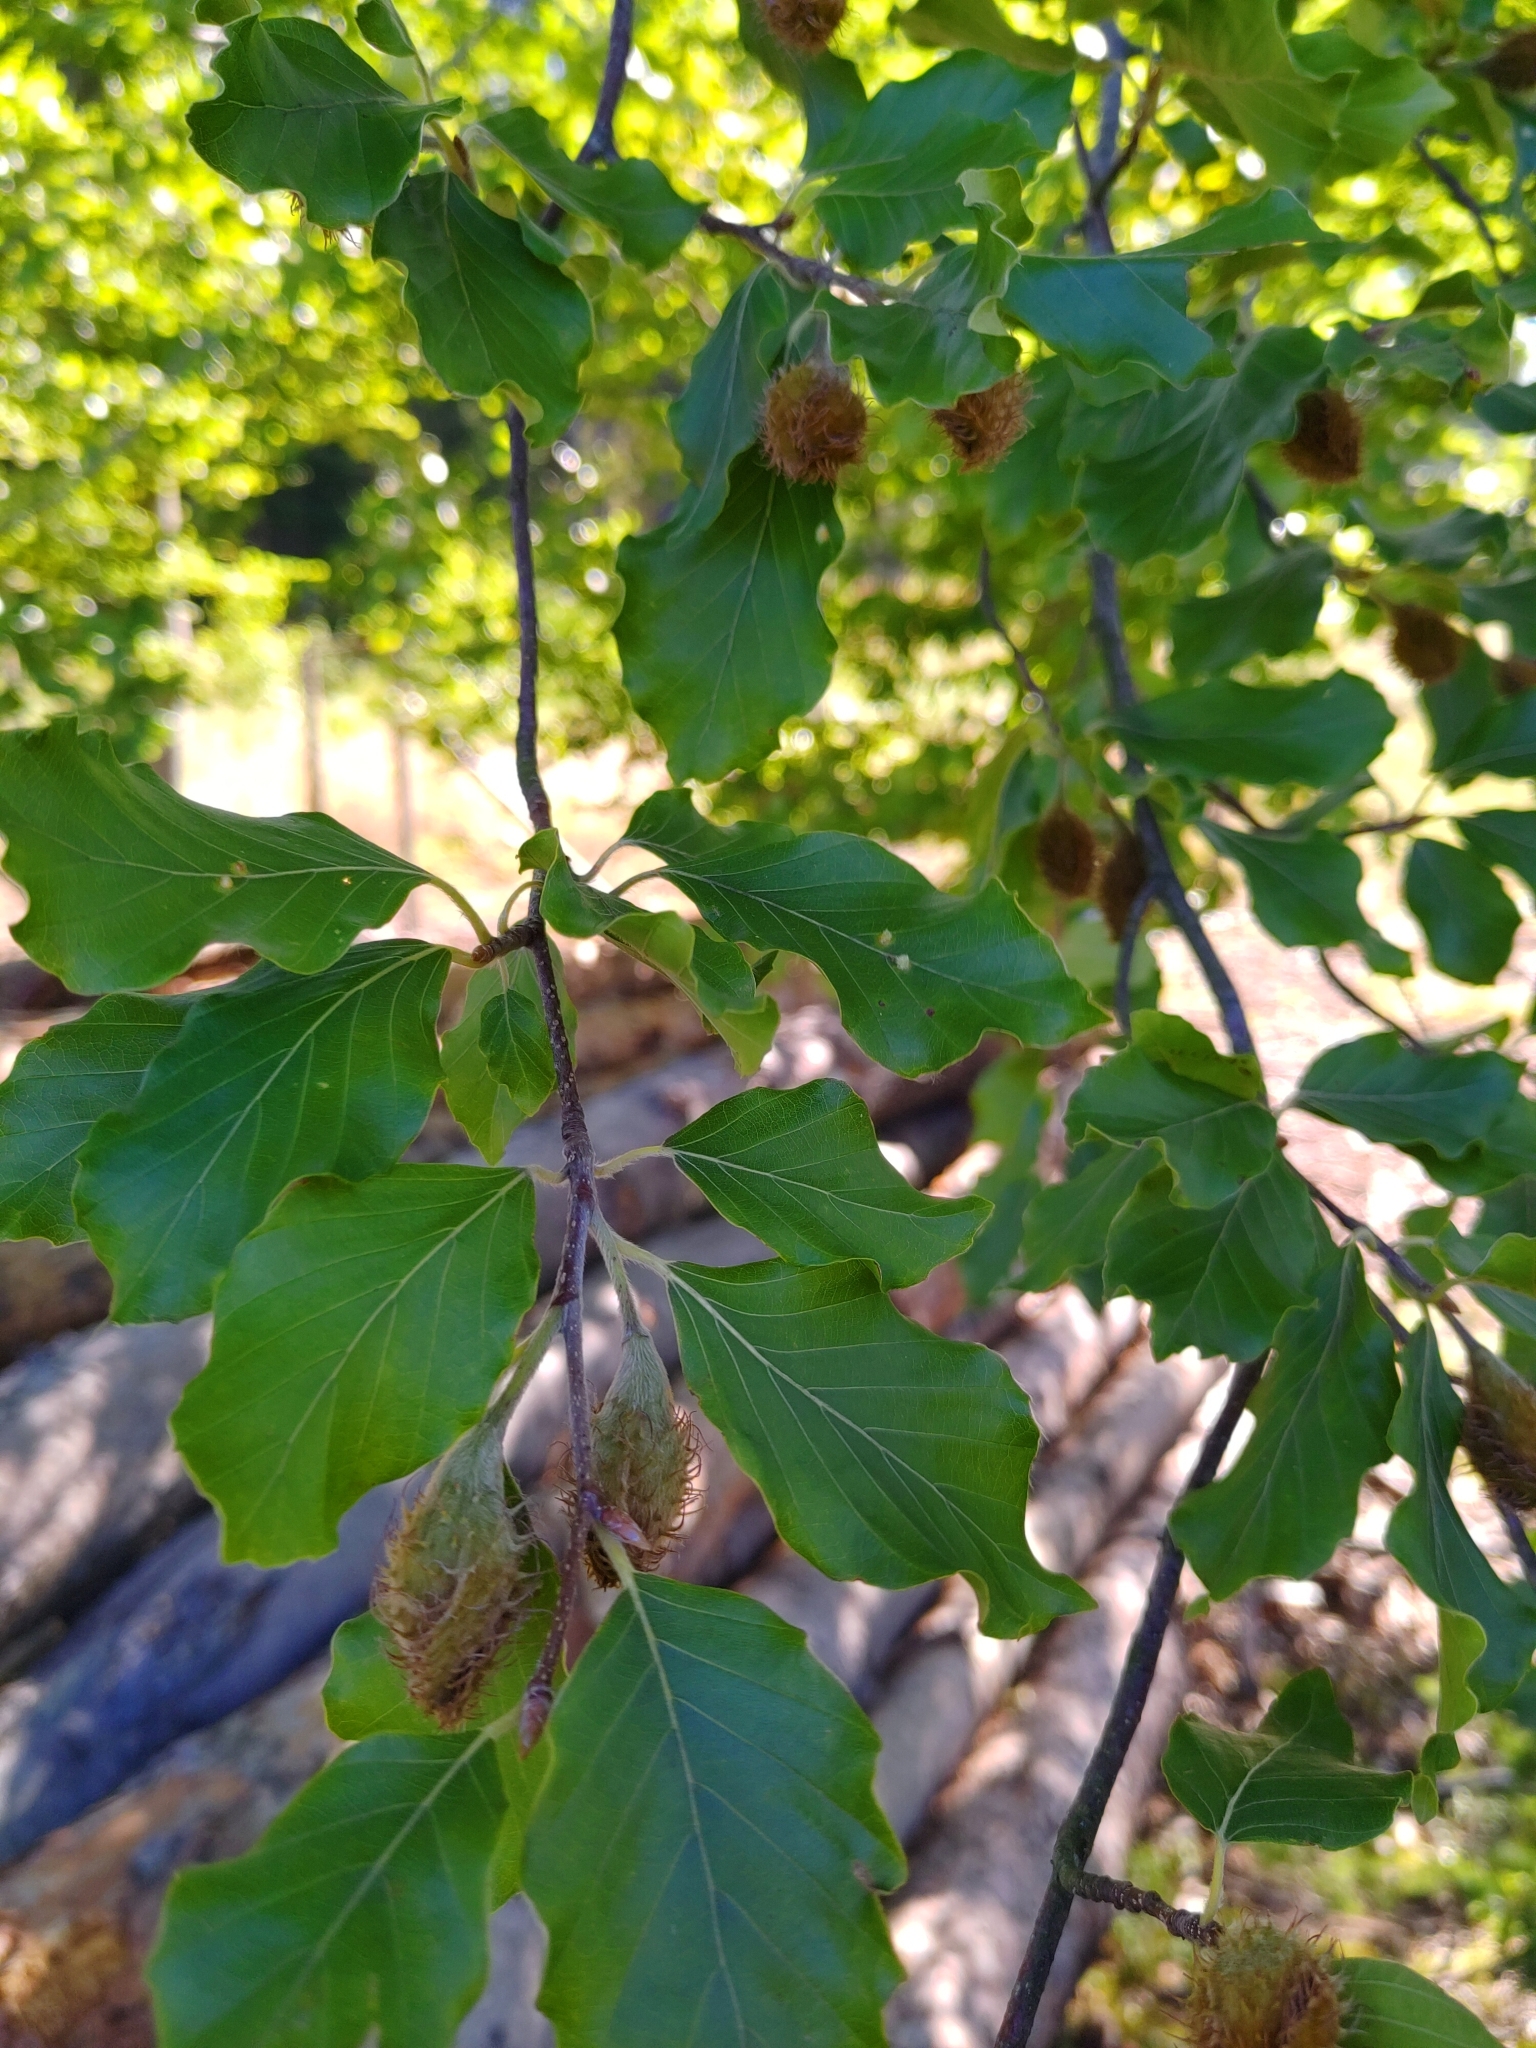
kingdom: Plantae
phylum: Tracheophyta
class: Magnoliopsida
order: Fagales
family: Fagaceae
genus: Fagus
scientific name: Fagus sylvatica
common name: Beech
